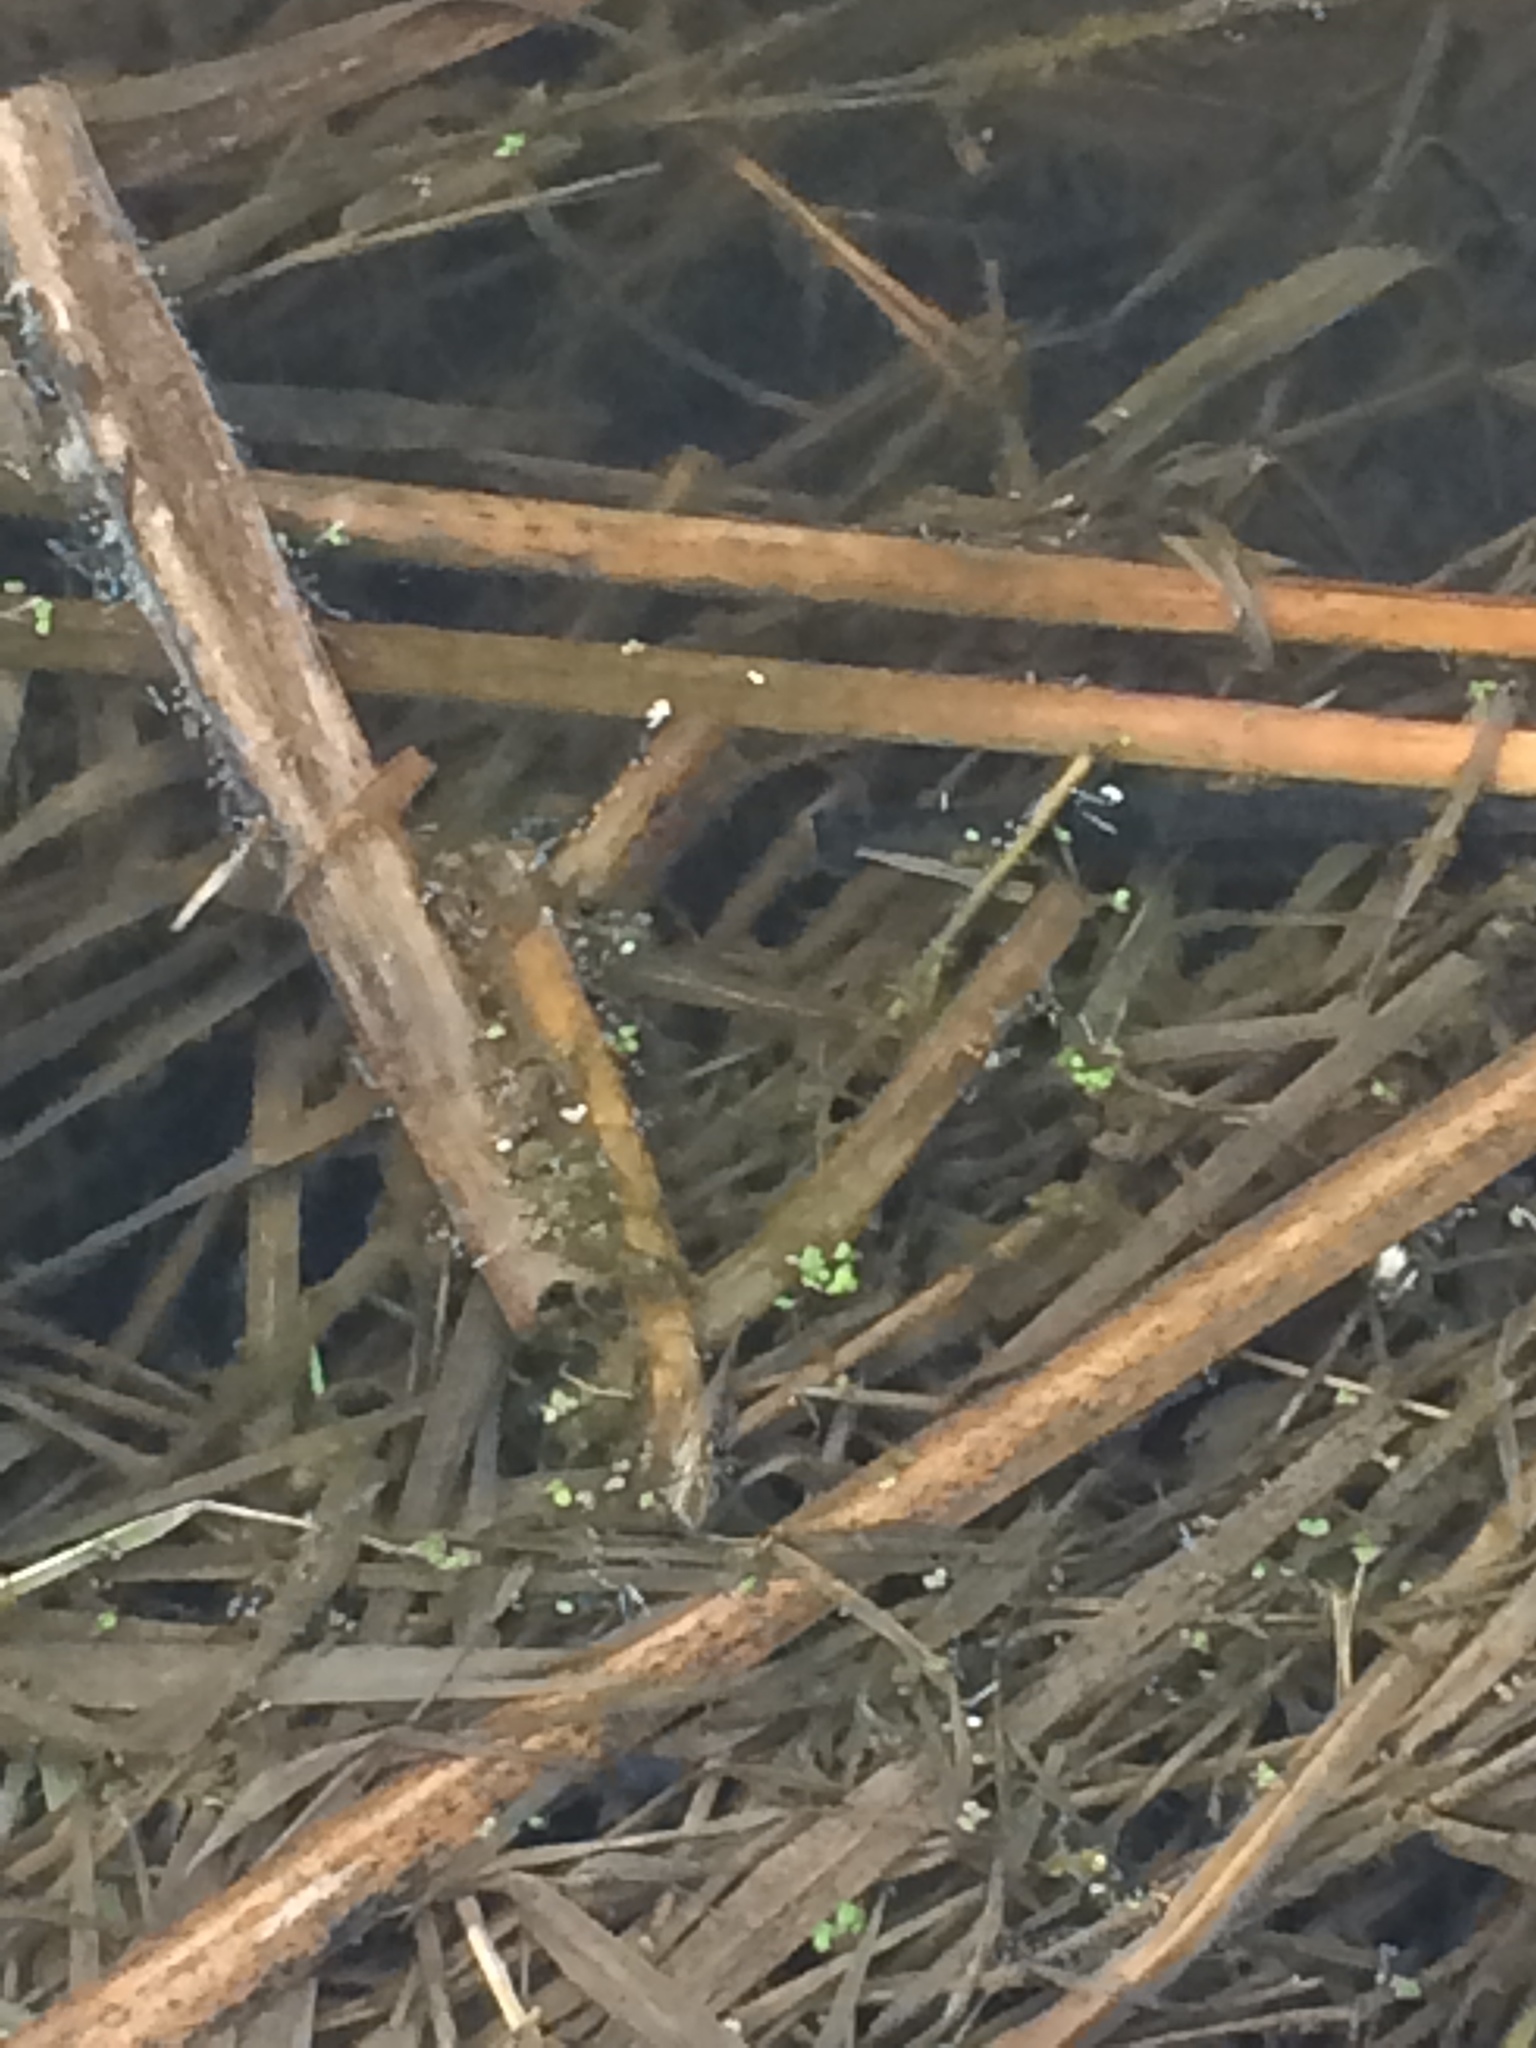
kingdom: Plantae
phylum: Tracheophyta
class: Liliopsida
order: Alismatales
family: Araceae
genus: Lemna
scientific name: Lemna minor
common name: Common duckweed
